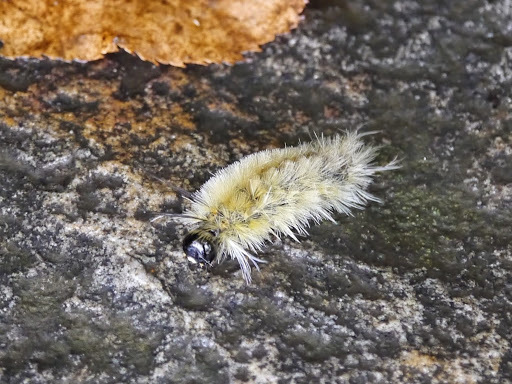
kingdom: Animalia
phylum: Arthropoda
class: Insecta
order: Lepidoptera
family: Erebidae
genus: Halysidota
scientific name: Halysidota tessellaris
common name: Banded tussock moth
